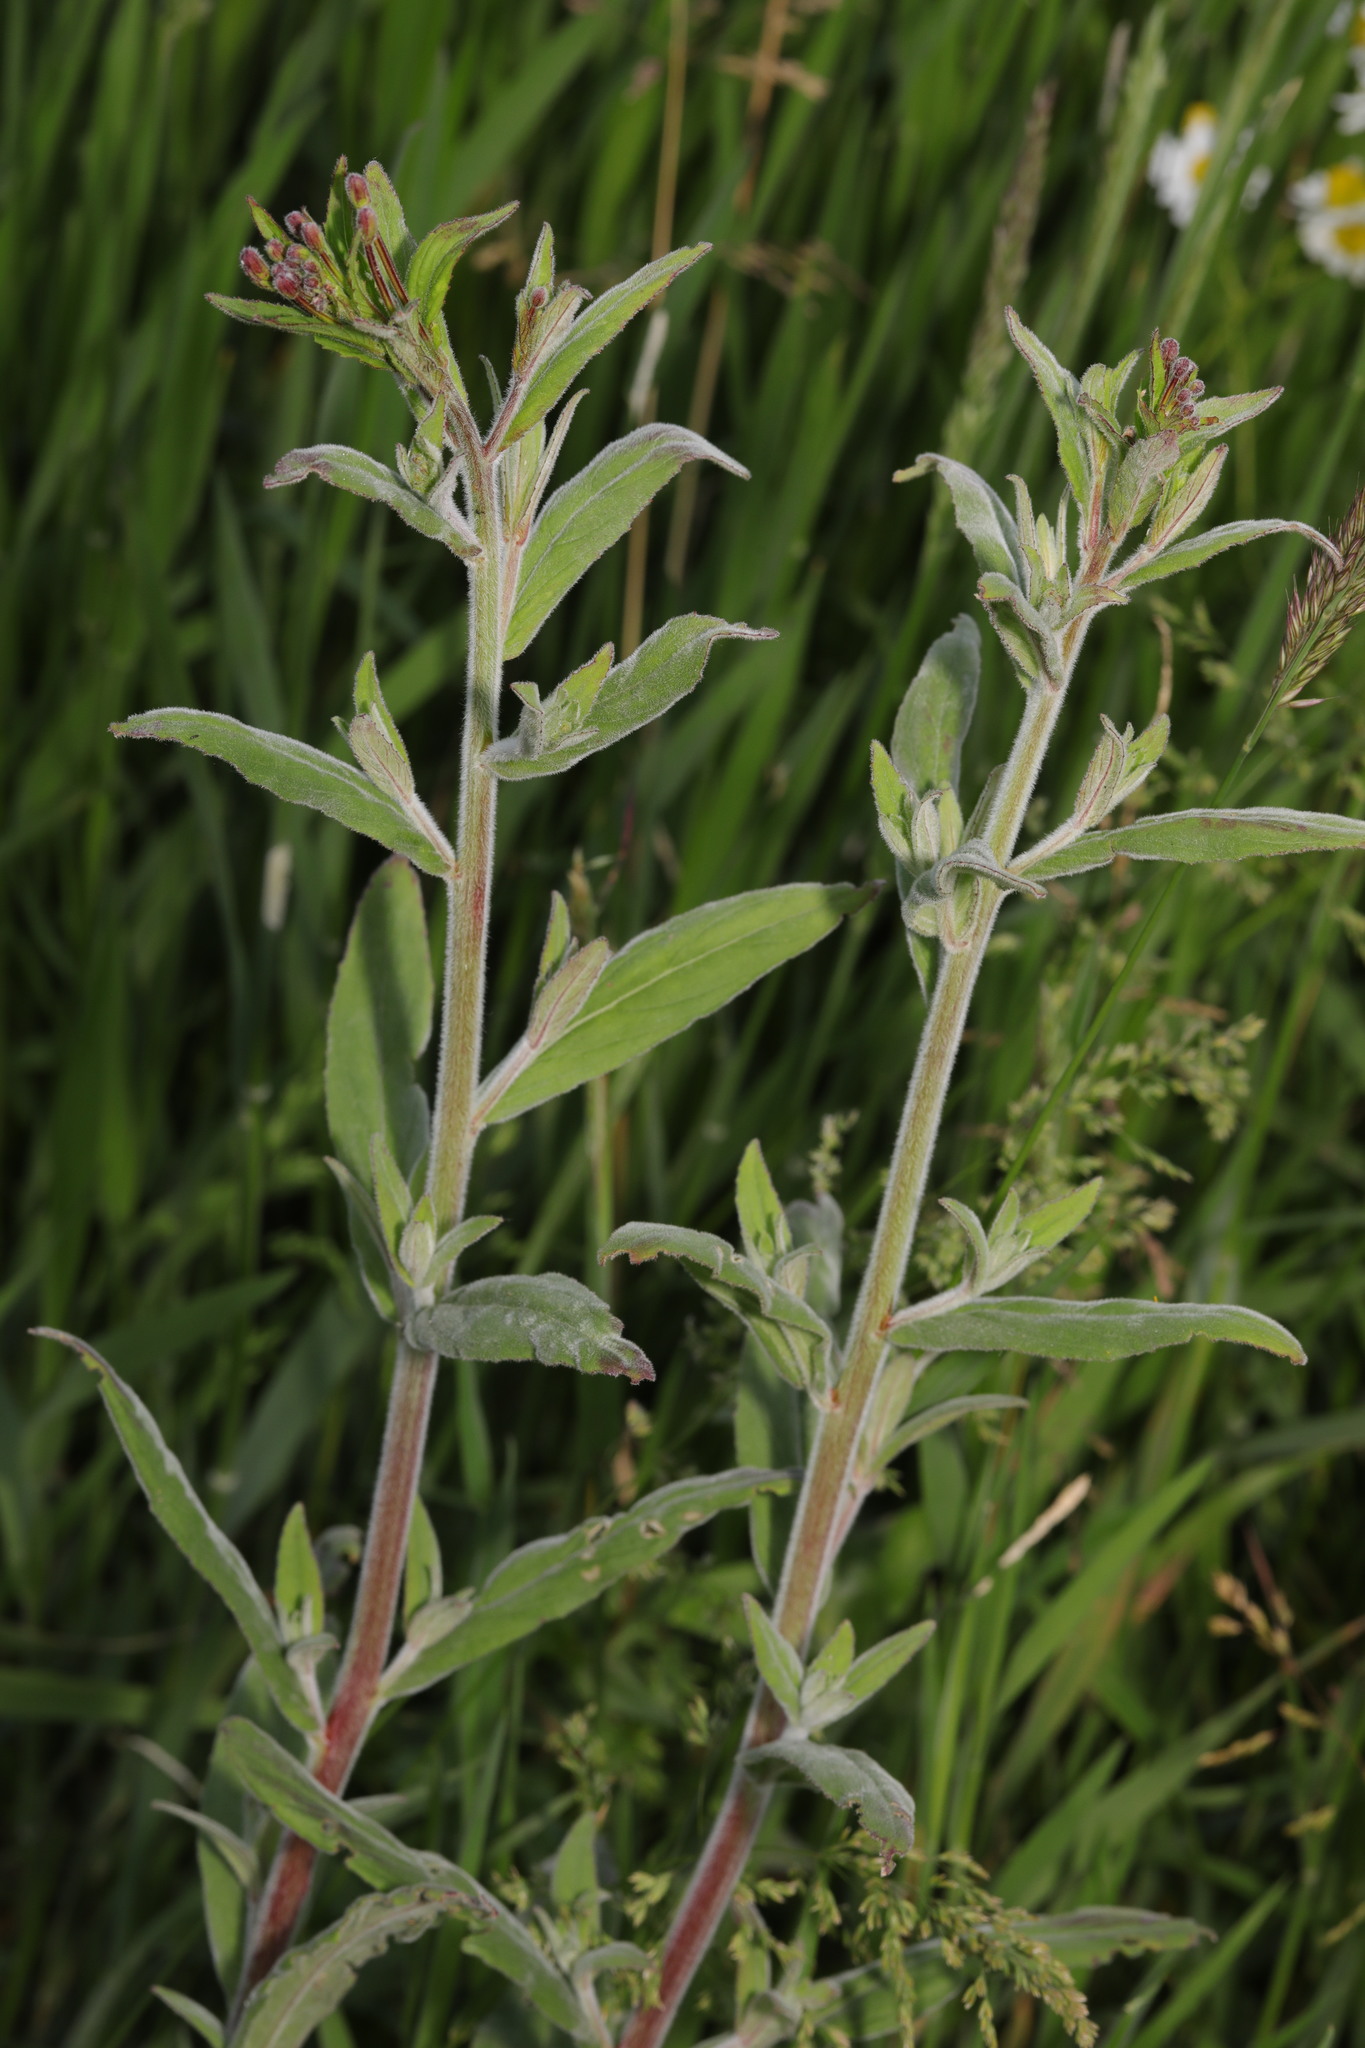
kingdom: Plantae
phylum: Tracheophyta
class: Magnoliopsida
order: Myrtales
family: Onagraceae
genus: Epilobium
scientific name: Epilobium parviflorum
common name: Hoary willowherb
